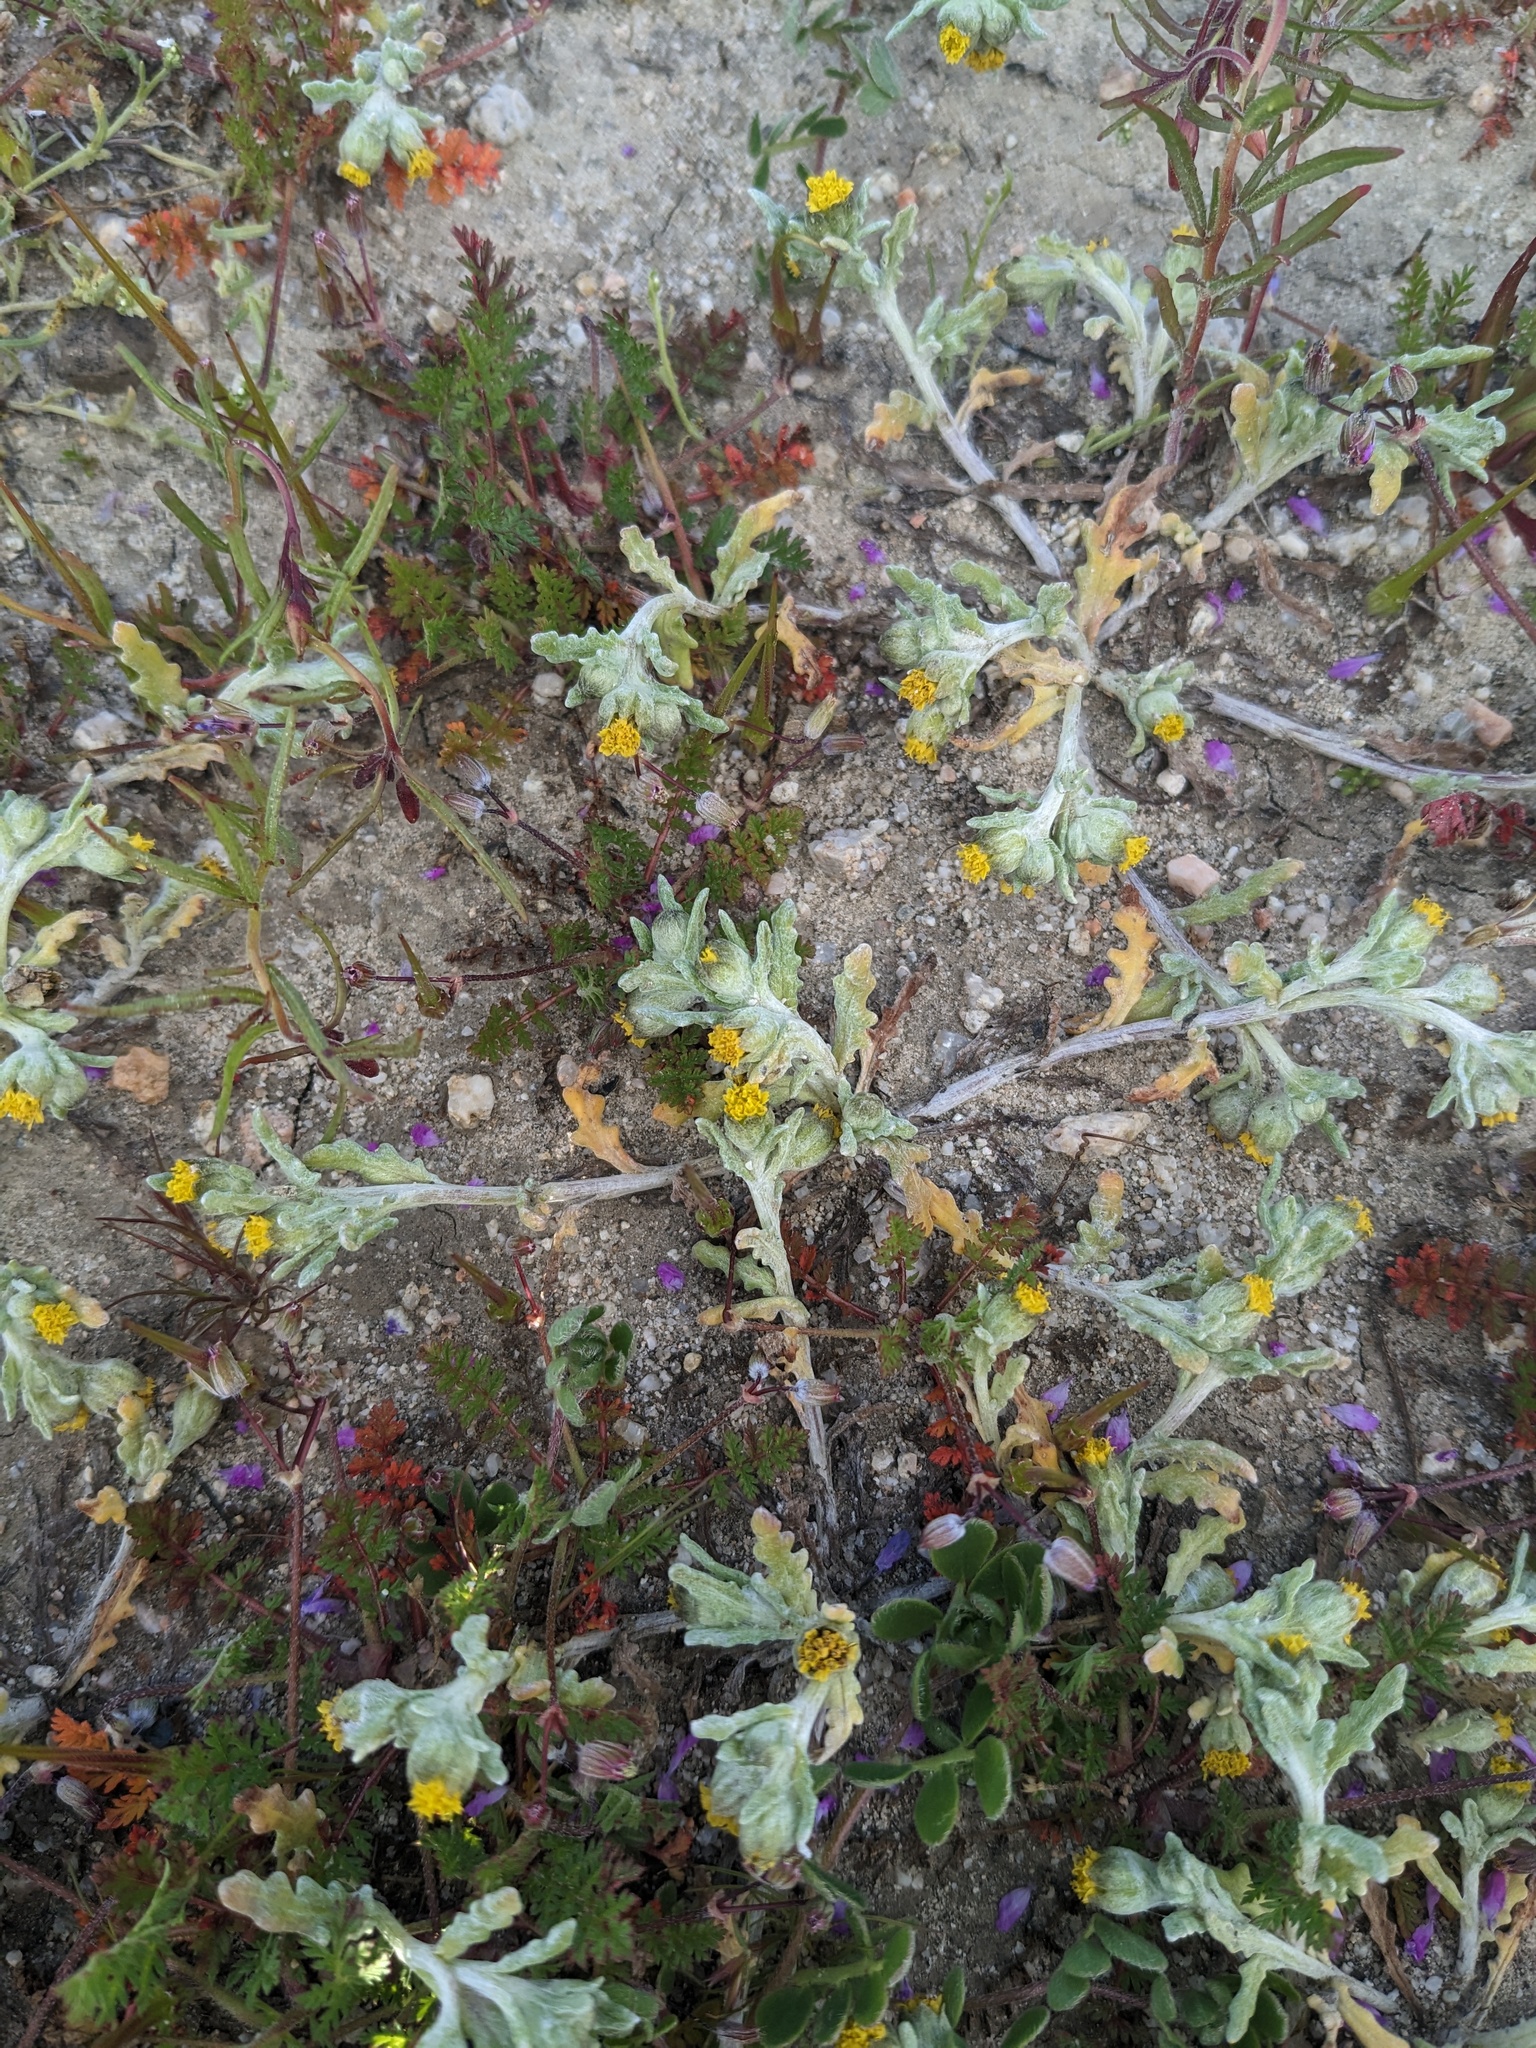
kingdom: Plantae
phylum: Tracheophyta
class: Magnoliopsida
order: Asterales
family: Asteraceae
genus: Monolopia
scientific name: Monolopia congdonii
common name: San joaquin woolly-threads
